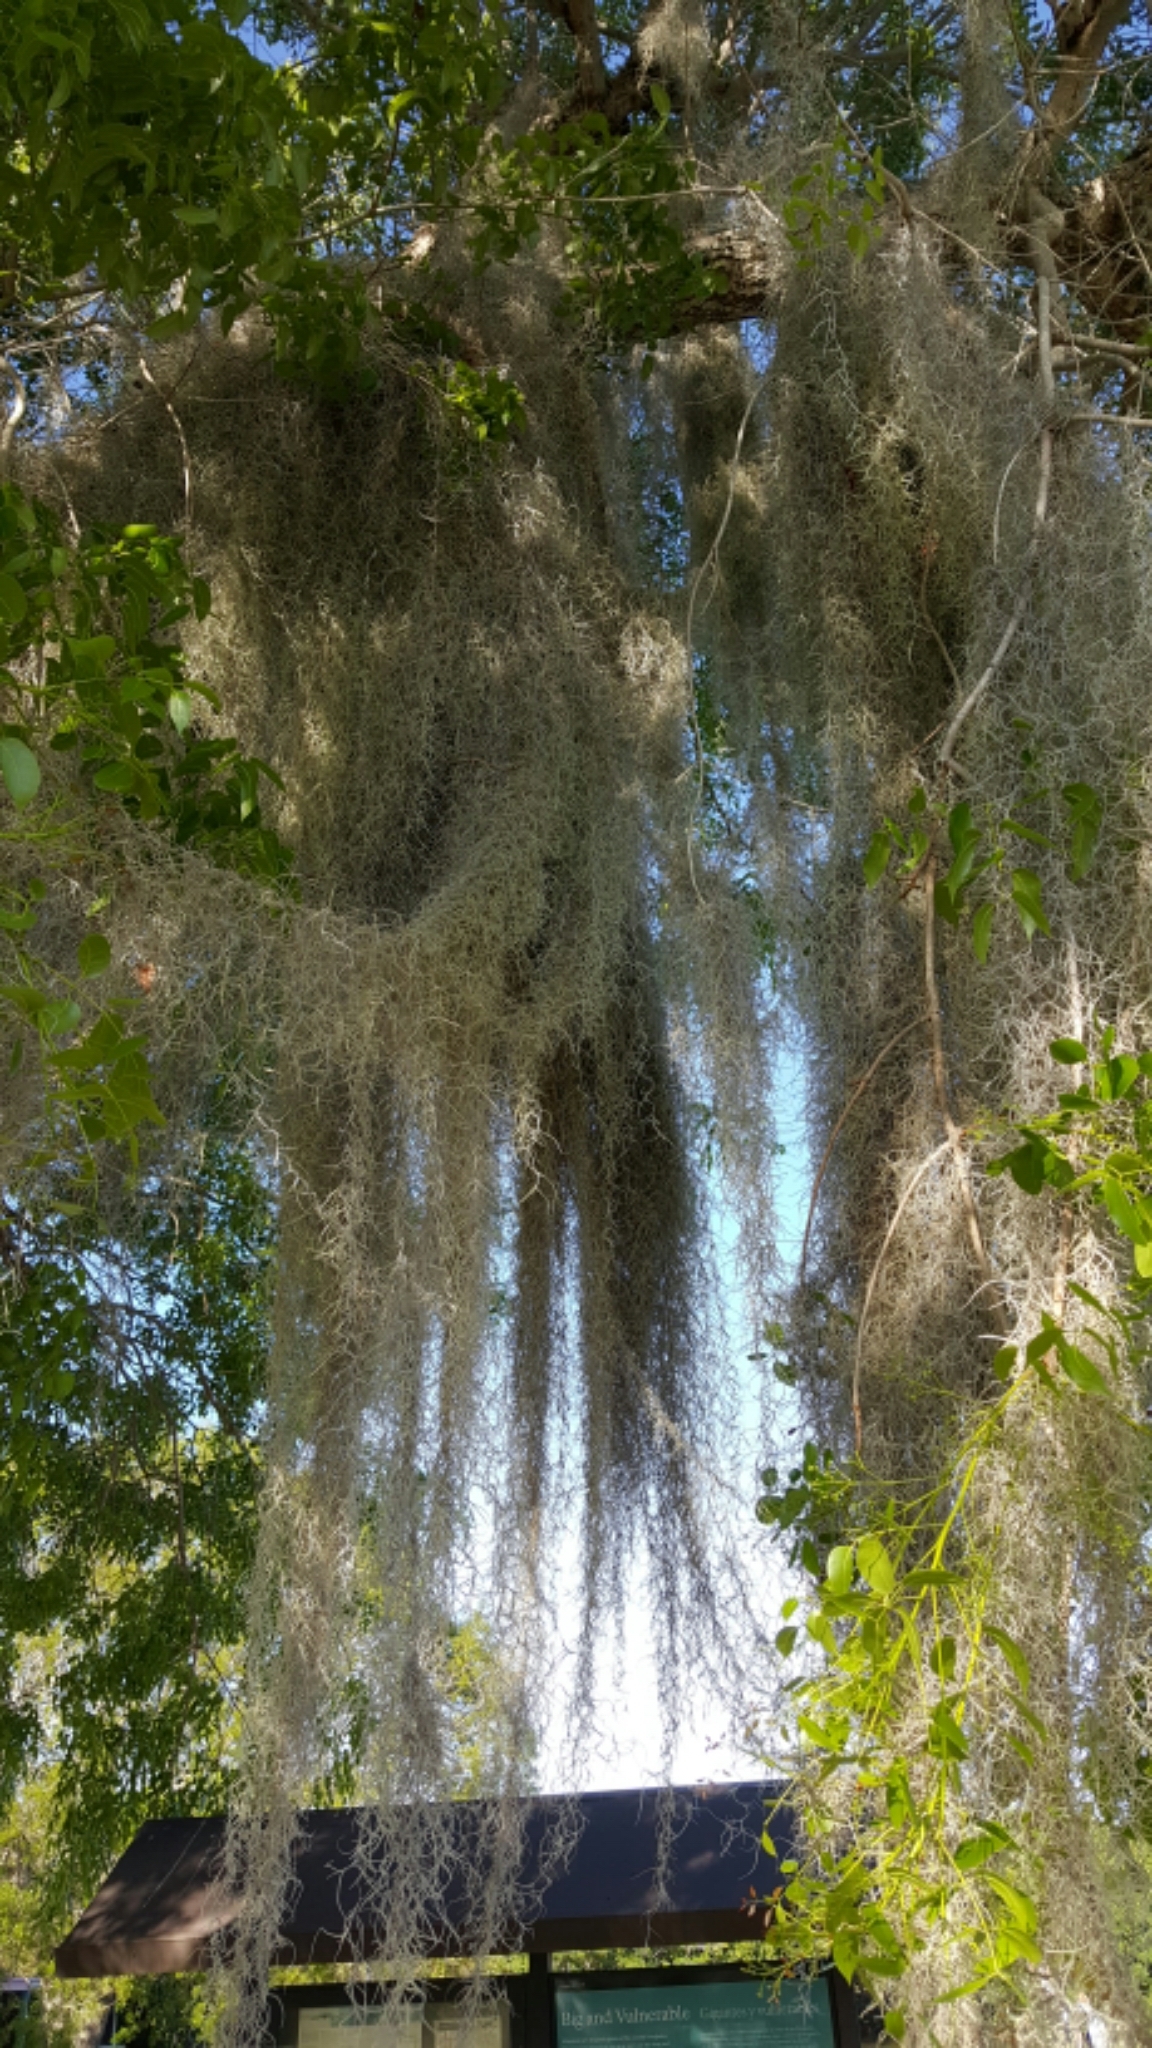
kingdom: Plantae
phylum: Tracheophyta
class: Liliopsida
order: Poales
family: Bromeliaceae
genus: Tillandsia
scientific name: Tillandsia usneoides
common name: Spanish moss
